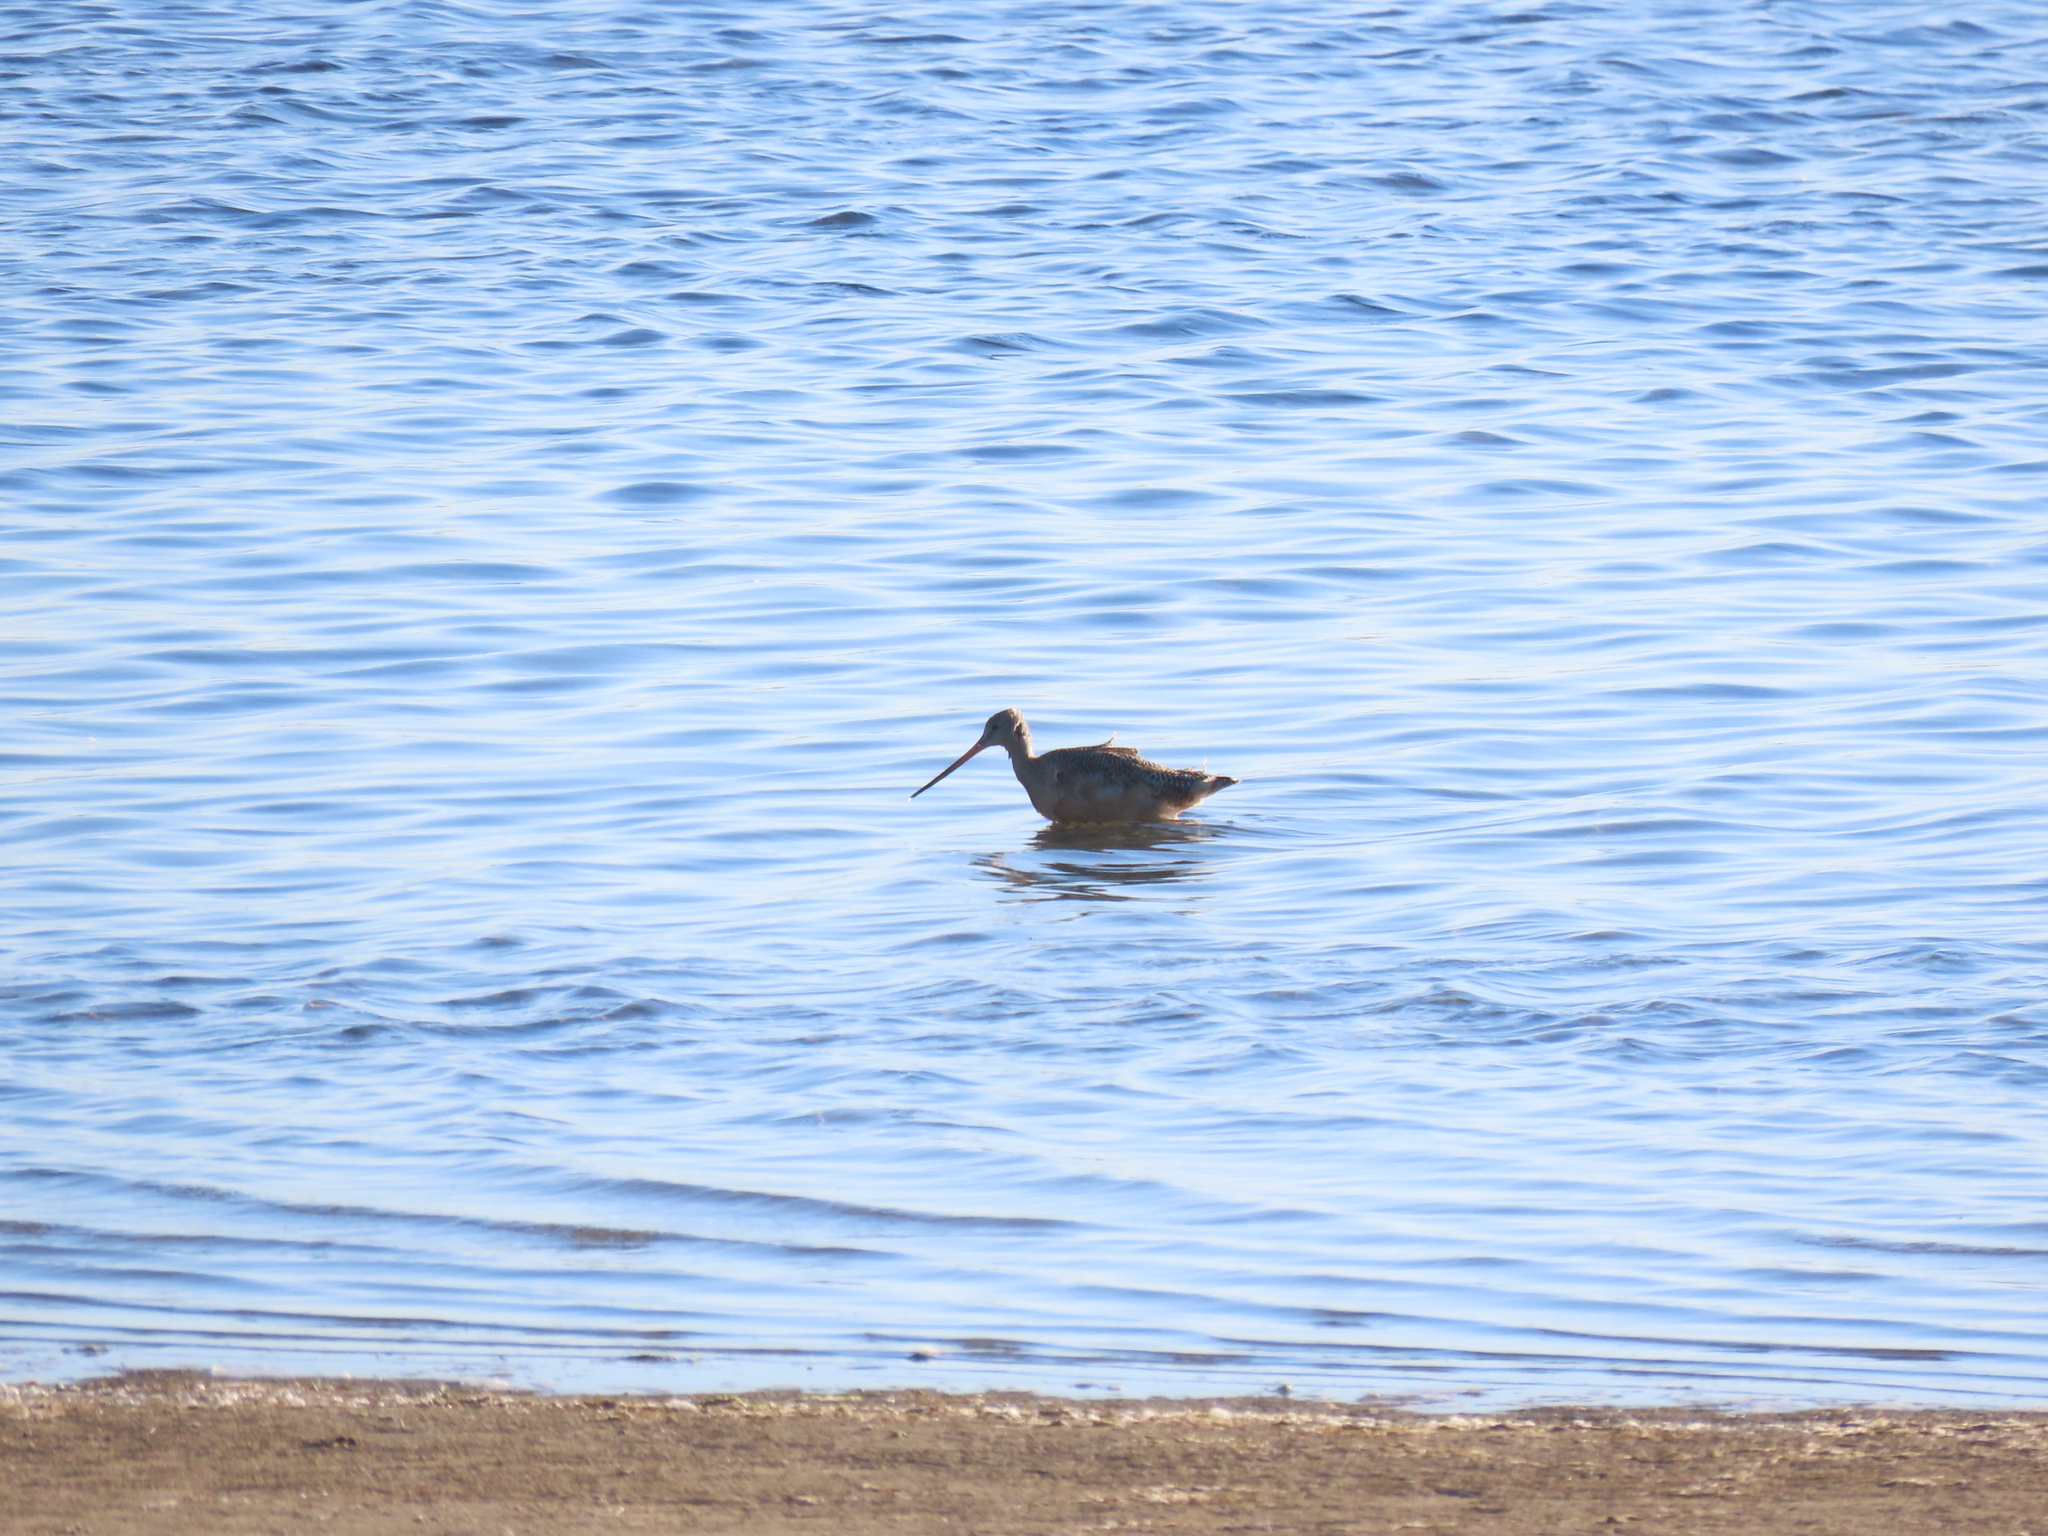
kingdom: Animalia
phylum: Chordata
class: Aves
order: Charadriiformes
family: Scolopacidae
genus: Limosa
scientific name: Limosa fedoa
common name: Marbled godwit
